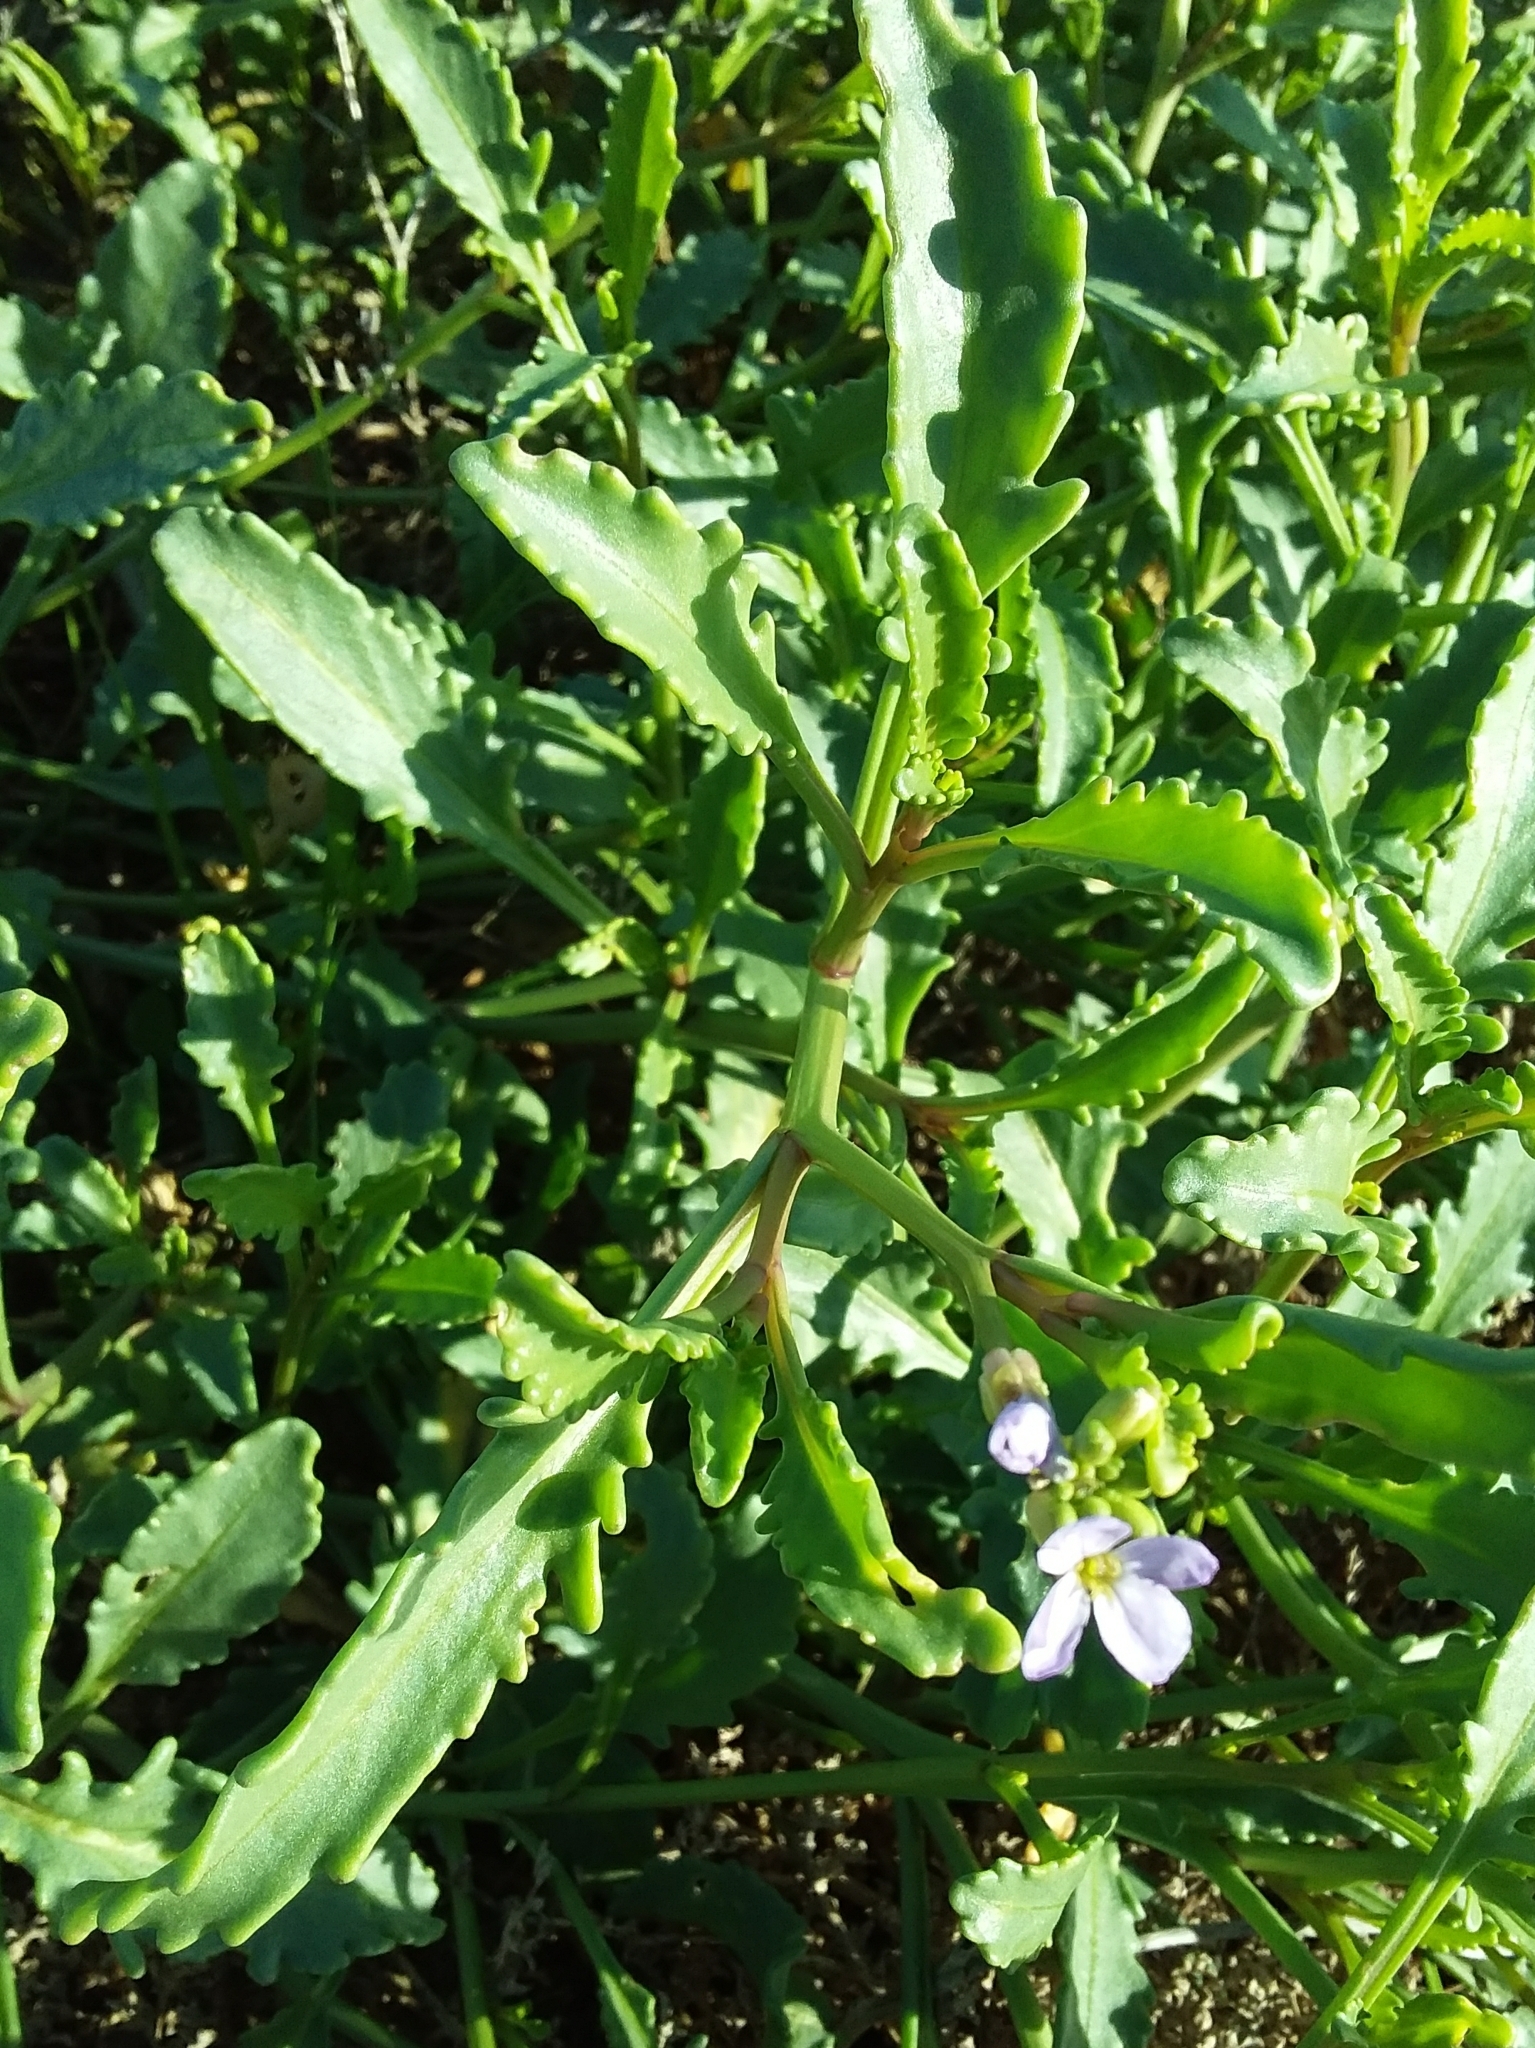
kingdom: Plantae
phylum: Tracheophyta
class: Magnoliopsida
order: Brassicales
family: Brassicaceae
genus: Cakile
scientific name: Cakile maritima
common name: Sea rocket
